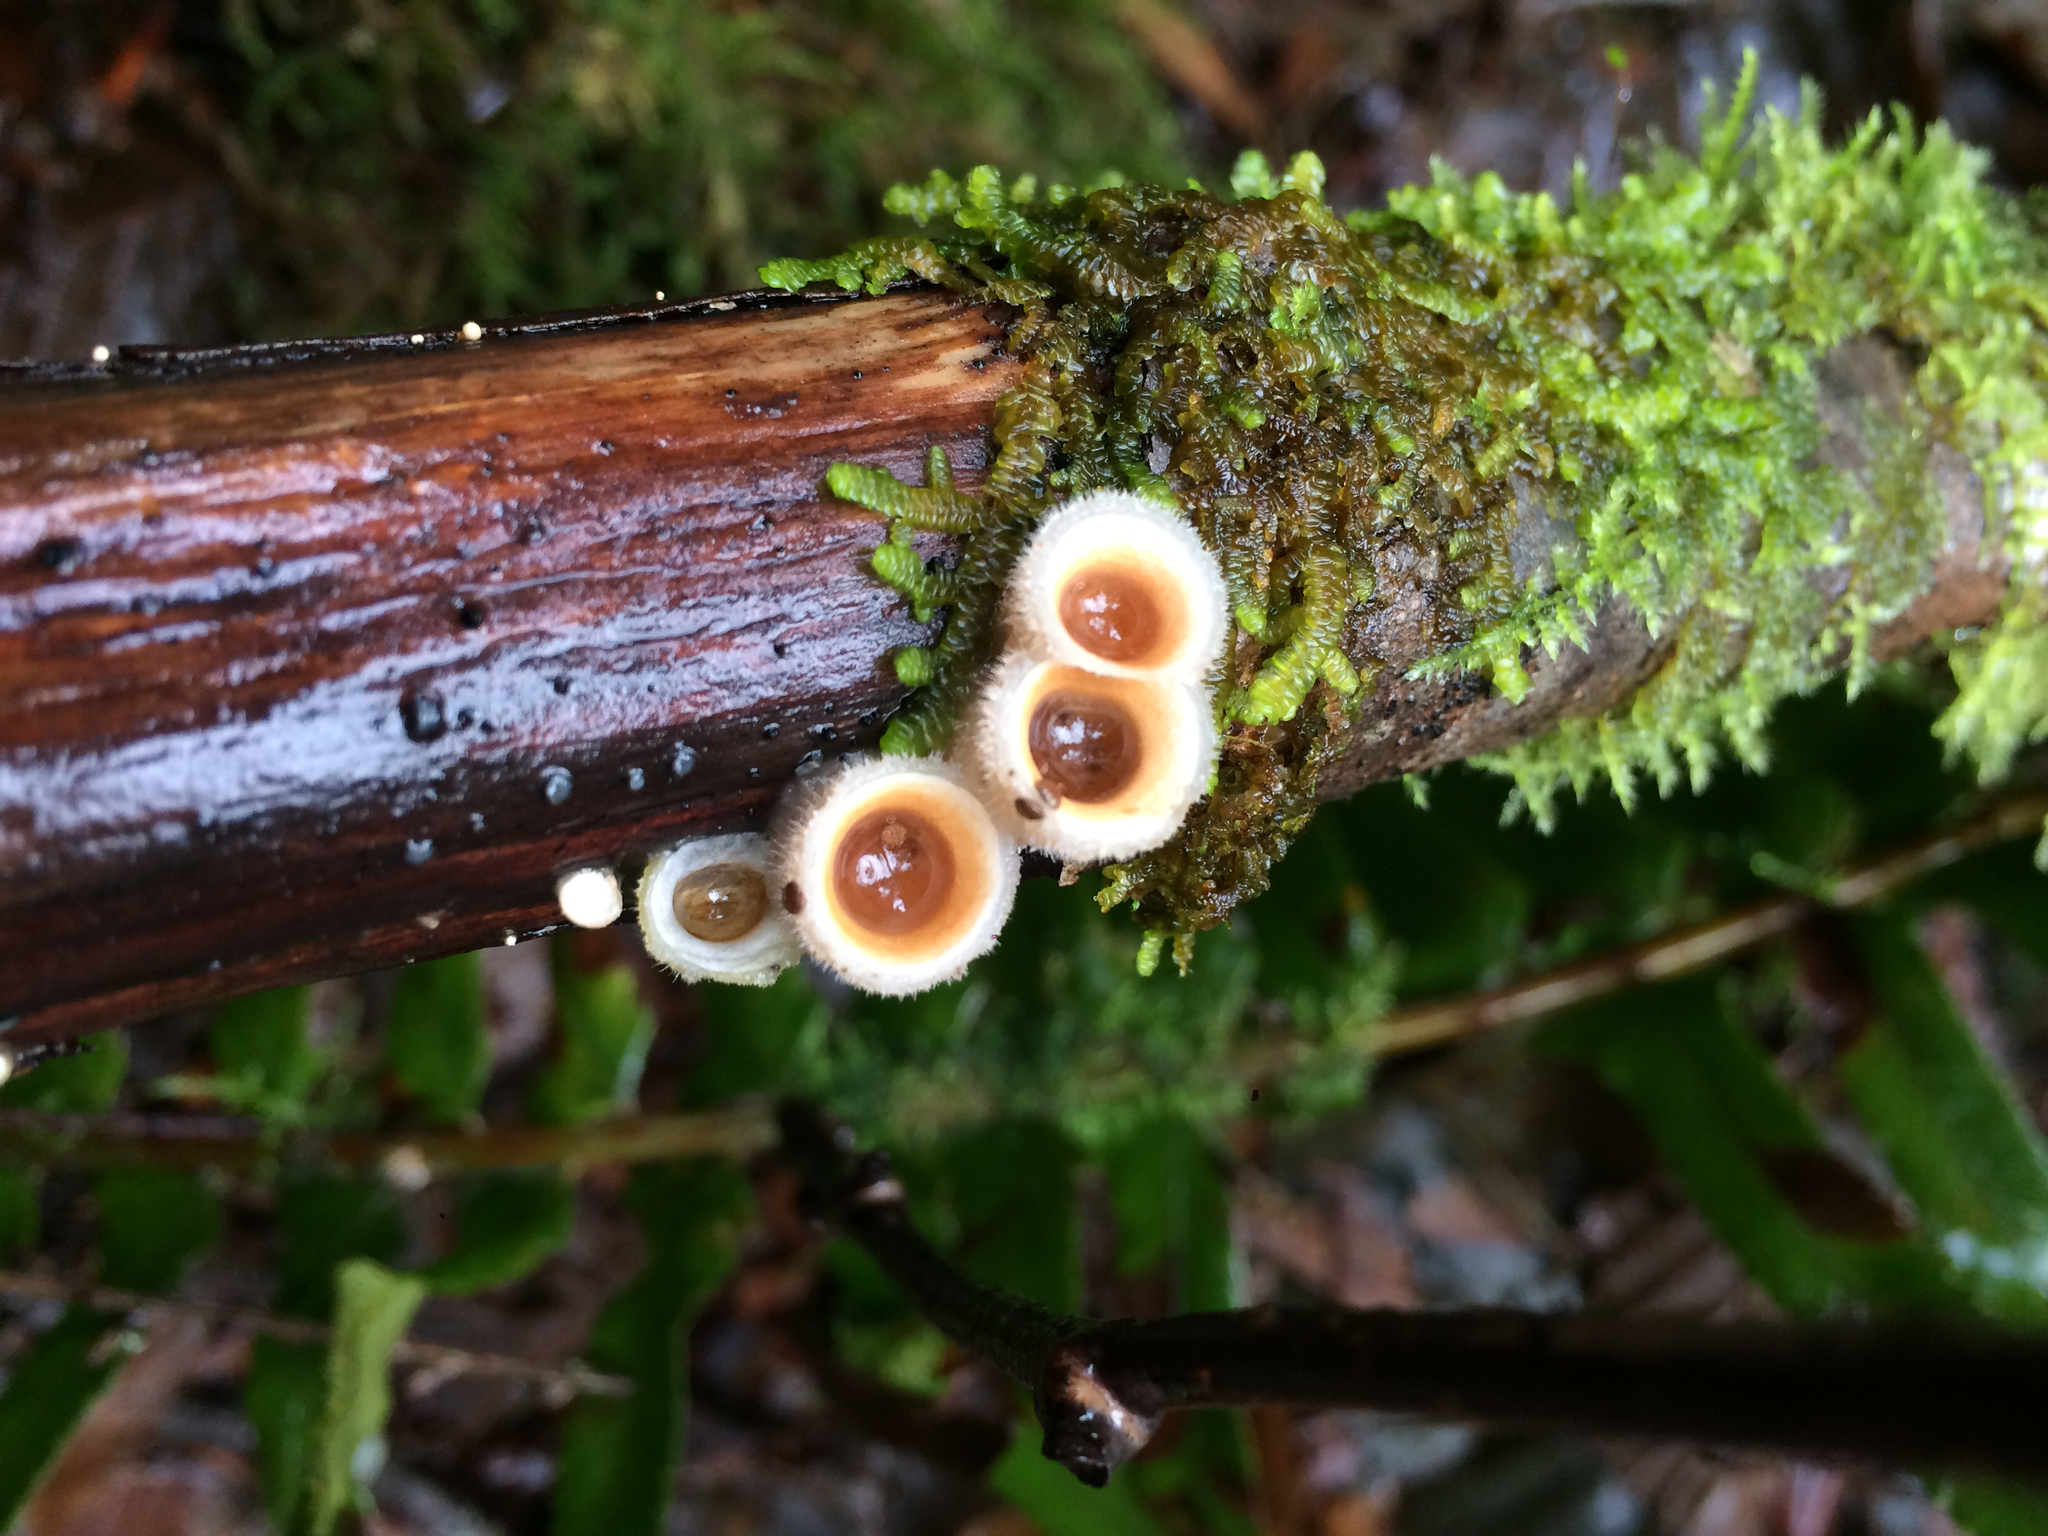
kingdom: Fungi
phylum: Basidiomycota
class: Agaricomycetes
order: Agaricales
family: Agaricaceae
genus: Nidula
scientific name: Nidula niveotomentosa
